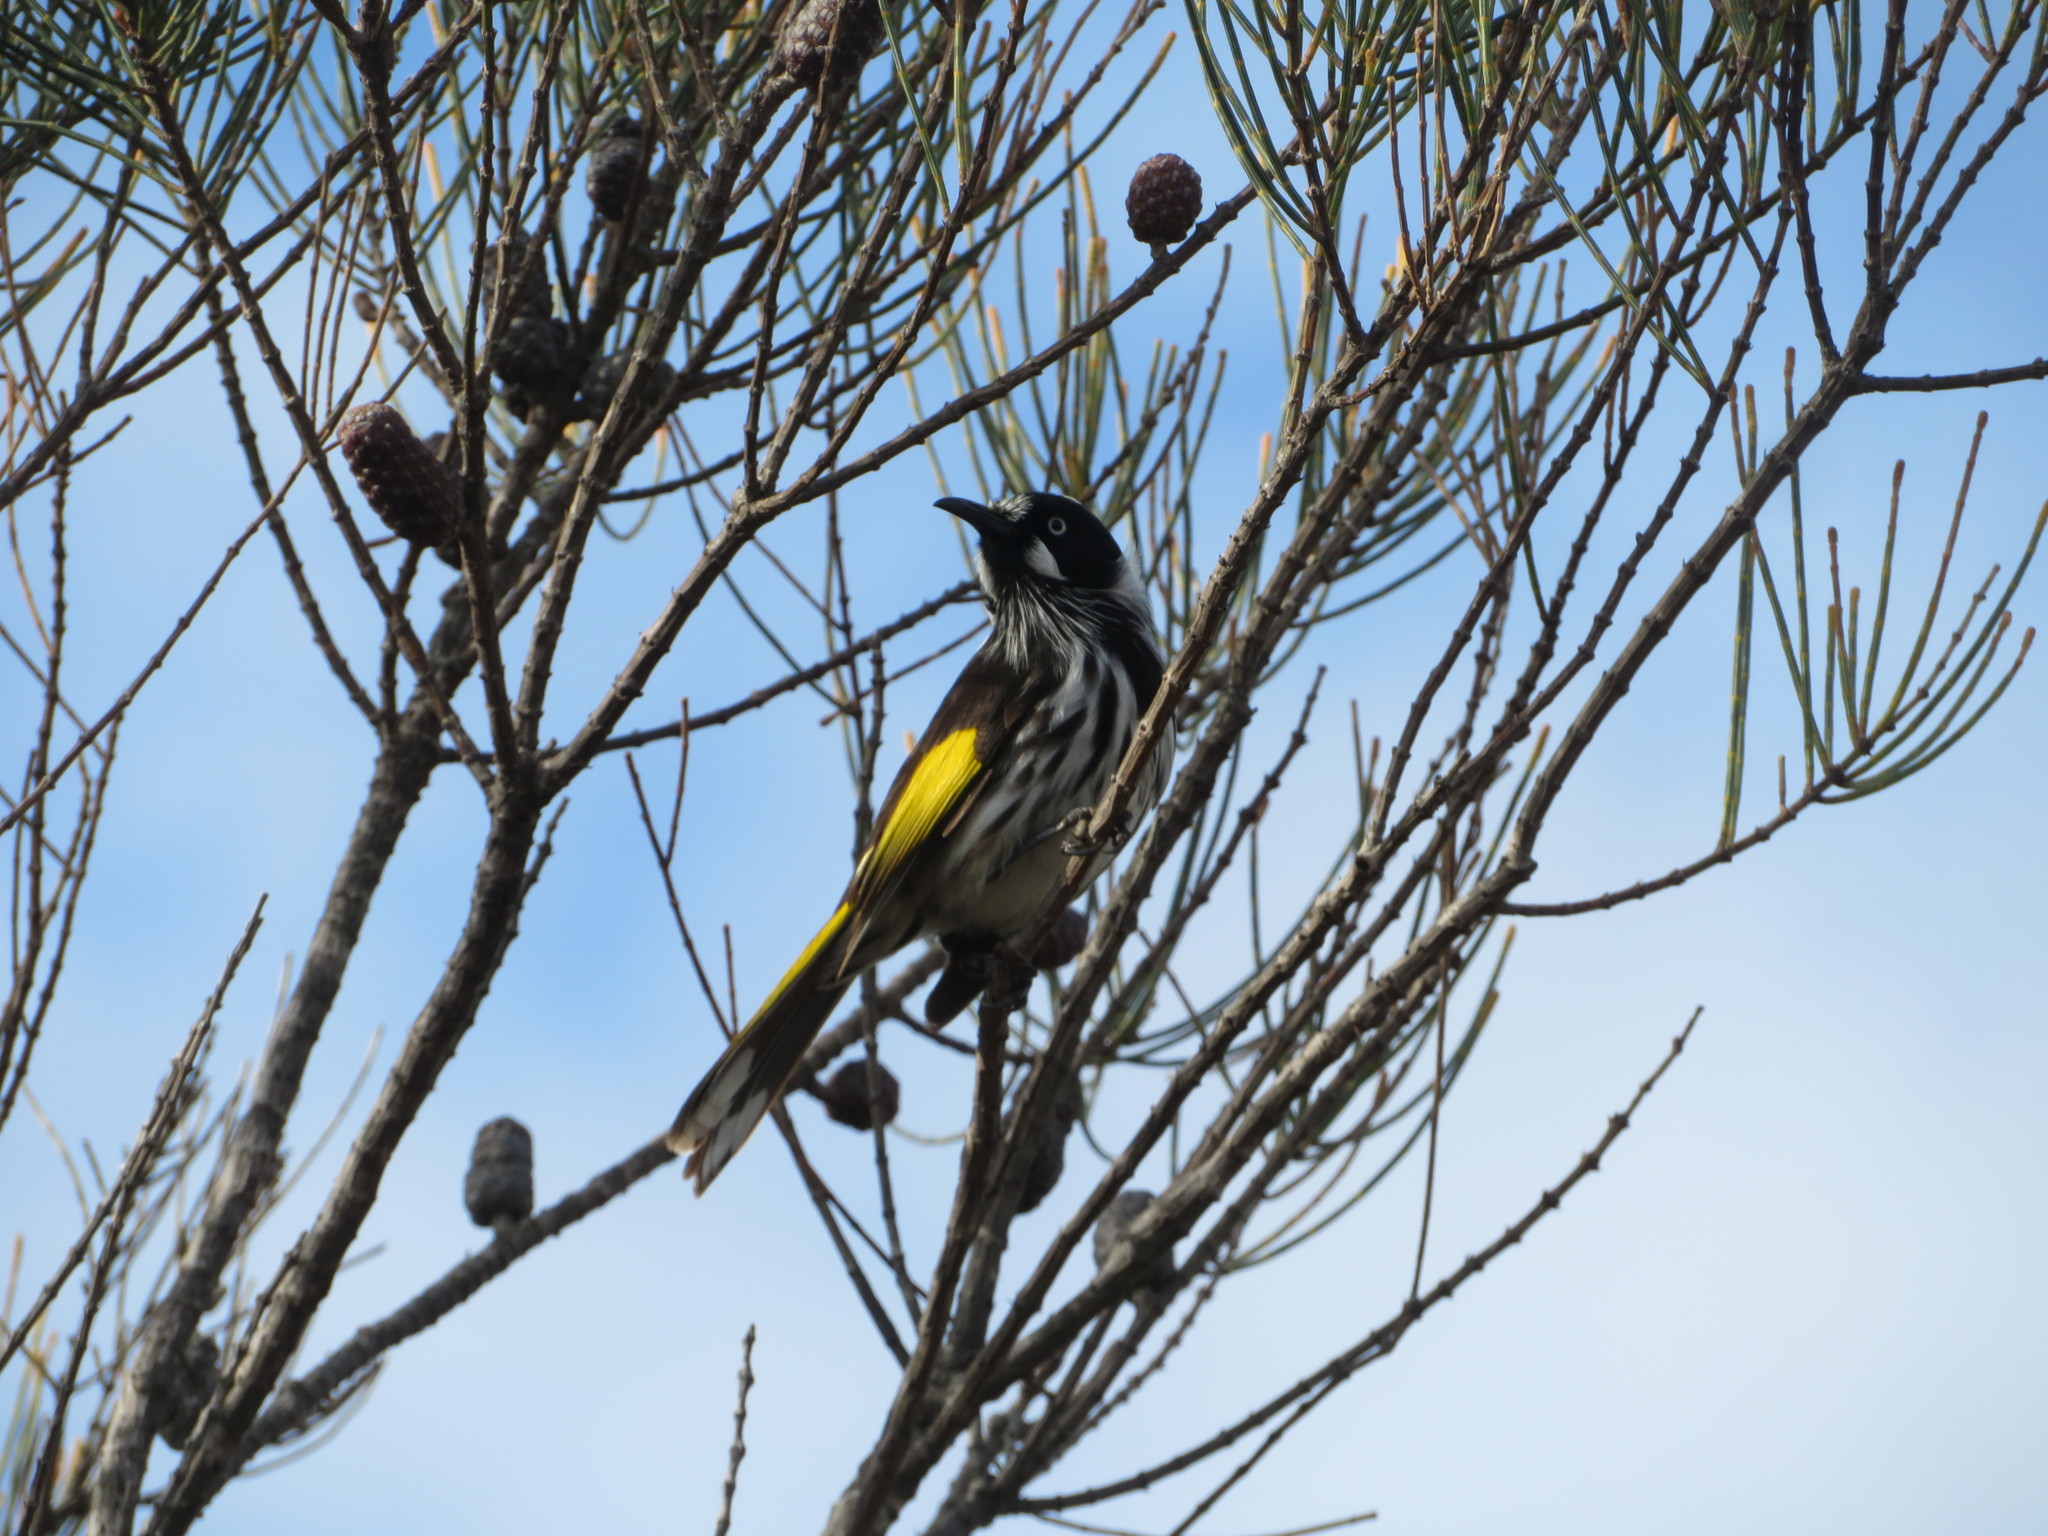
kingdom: Animalia
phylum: Chordata
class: Aves
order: Passeriformes
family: Meliphagidae
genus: Phylidonyris
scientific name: Phylidonyris novaehollandiae
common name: New holland honeyeater
